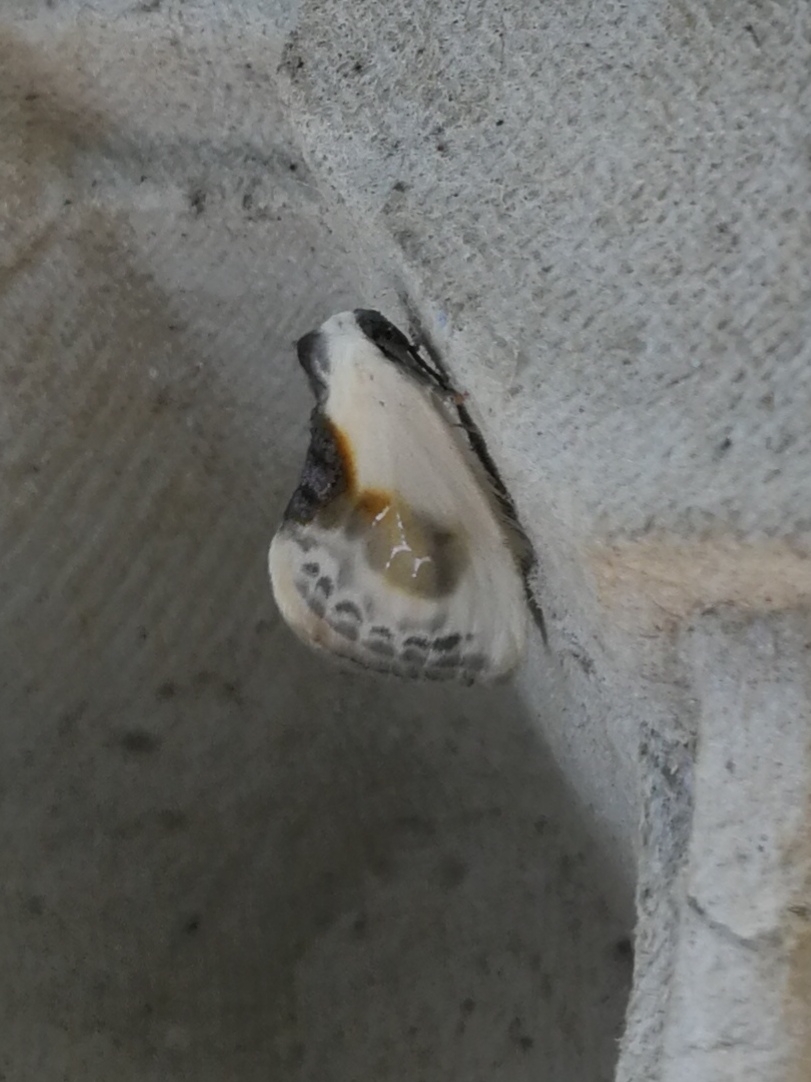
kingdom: Animalia
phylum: Arthropoda
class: Insecta
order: Lepidoptera
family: Drepanidae
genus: Cilix
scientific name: Cilix glaucata
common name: Chinese character
